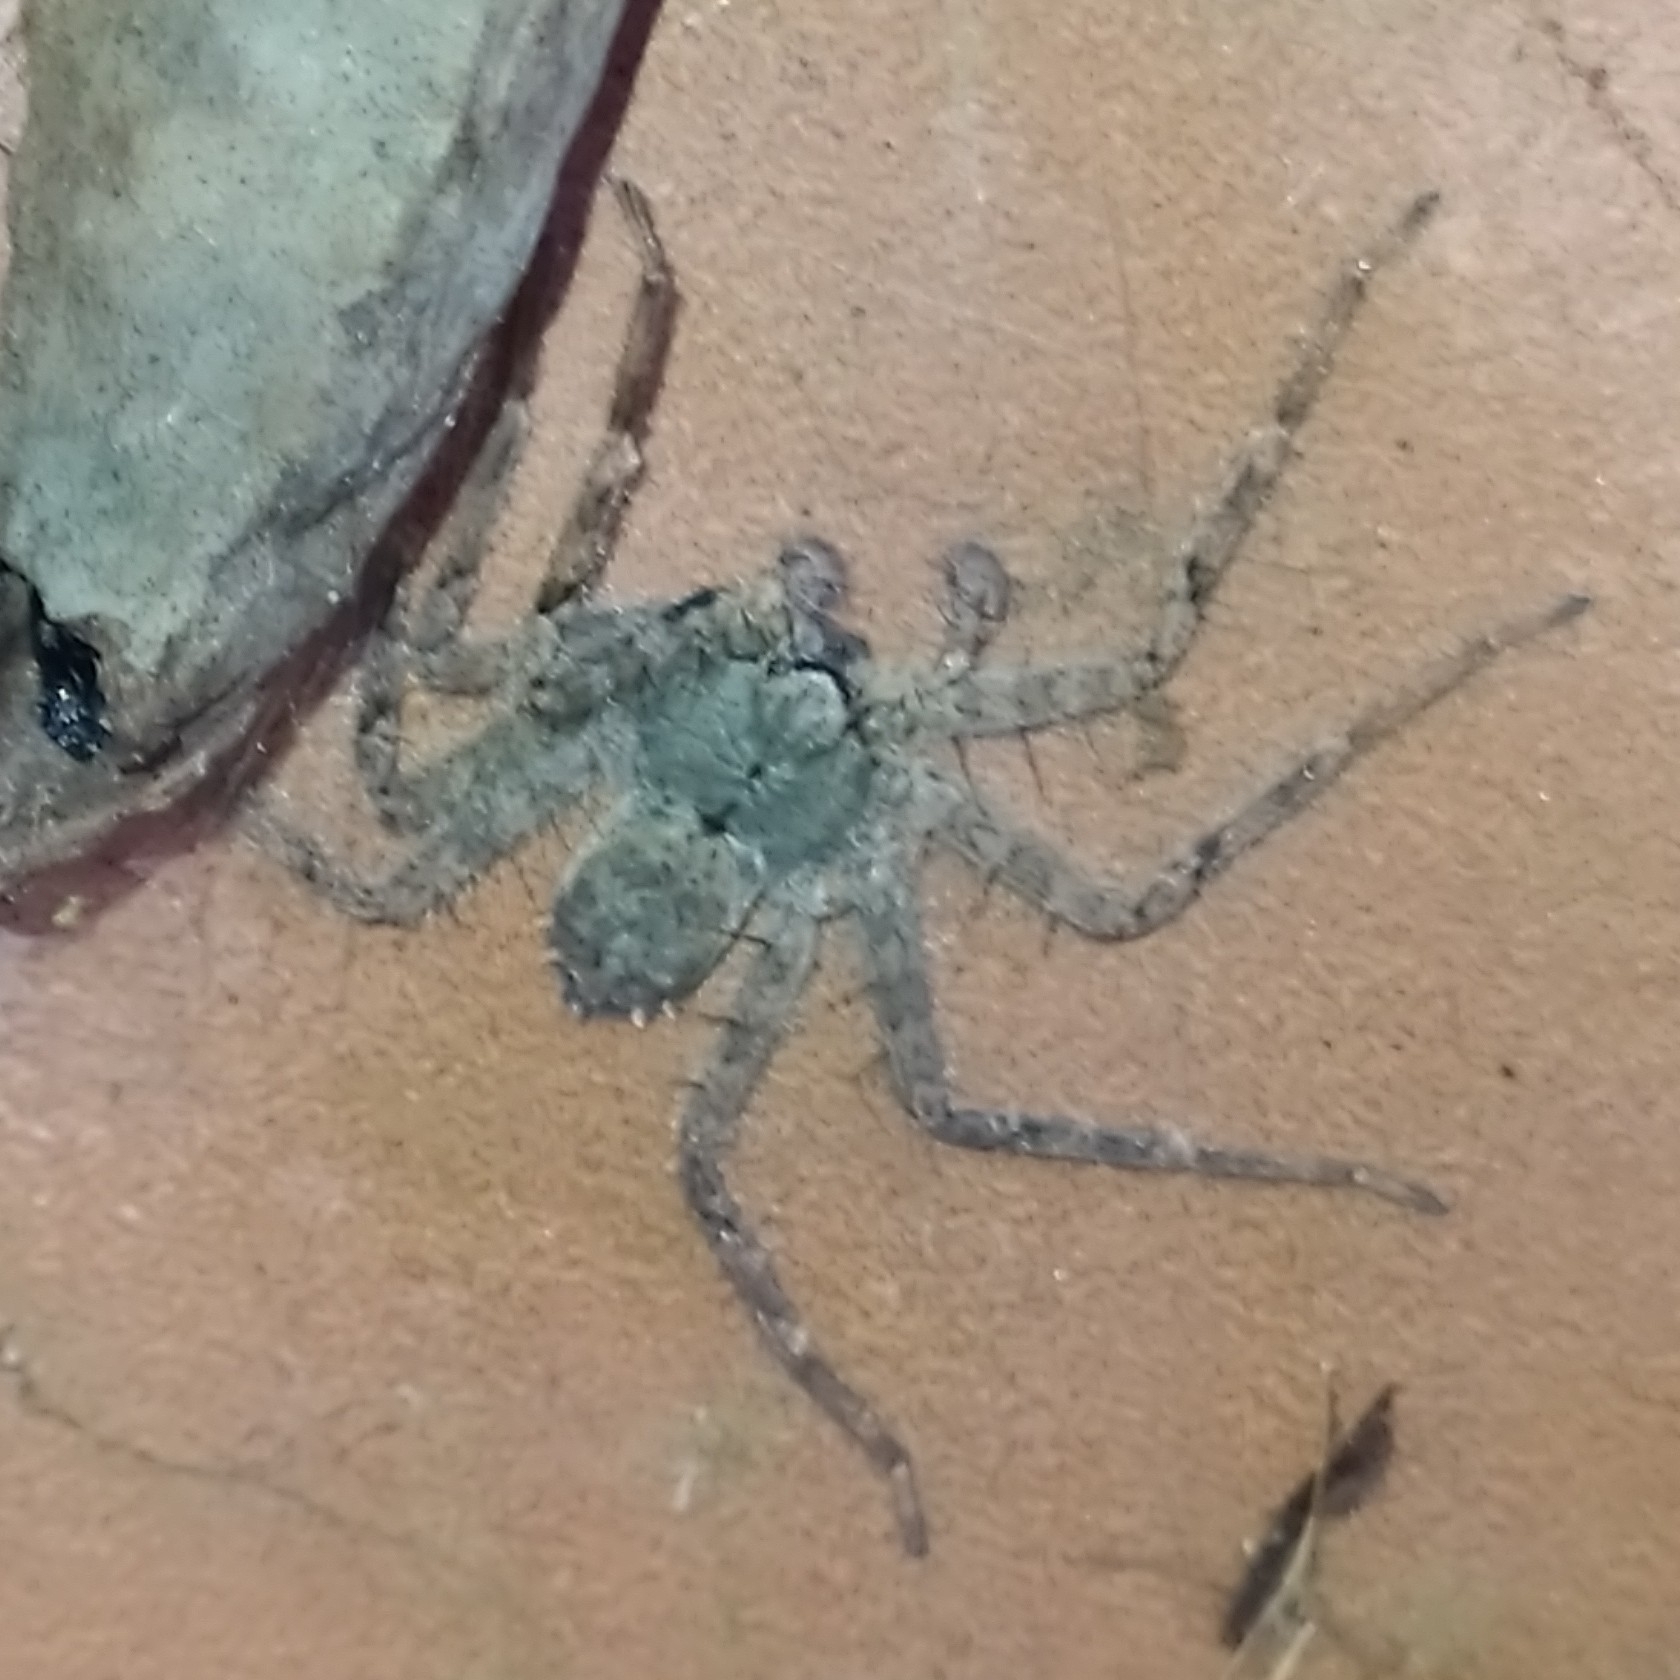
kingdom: Animalia
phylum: Arthropoda
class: Arachnida
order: Araneae
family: Selenopidae
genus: Selenops
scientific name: Selenops
